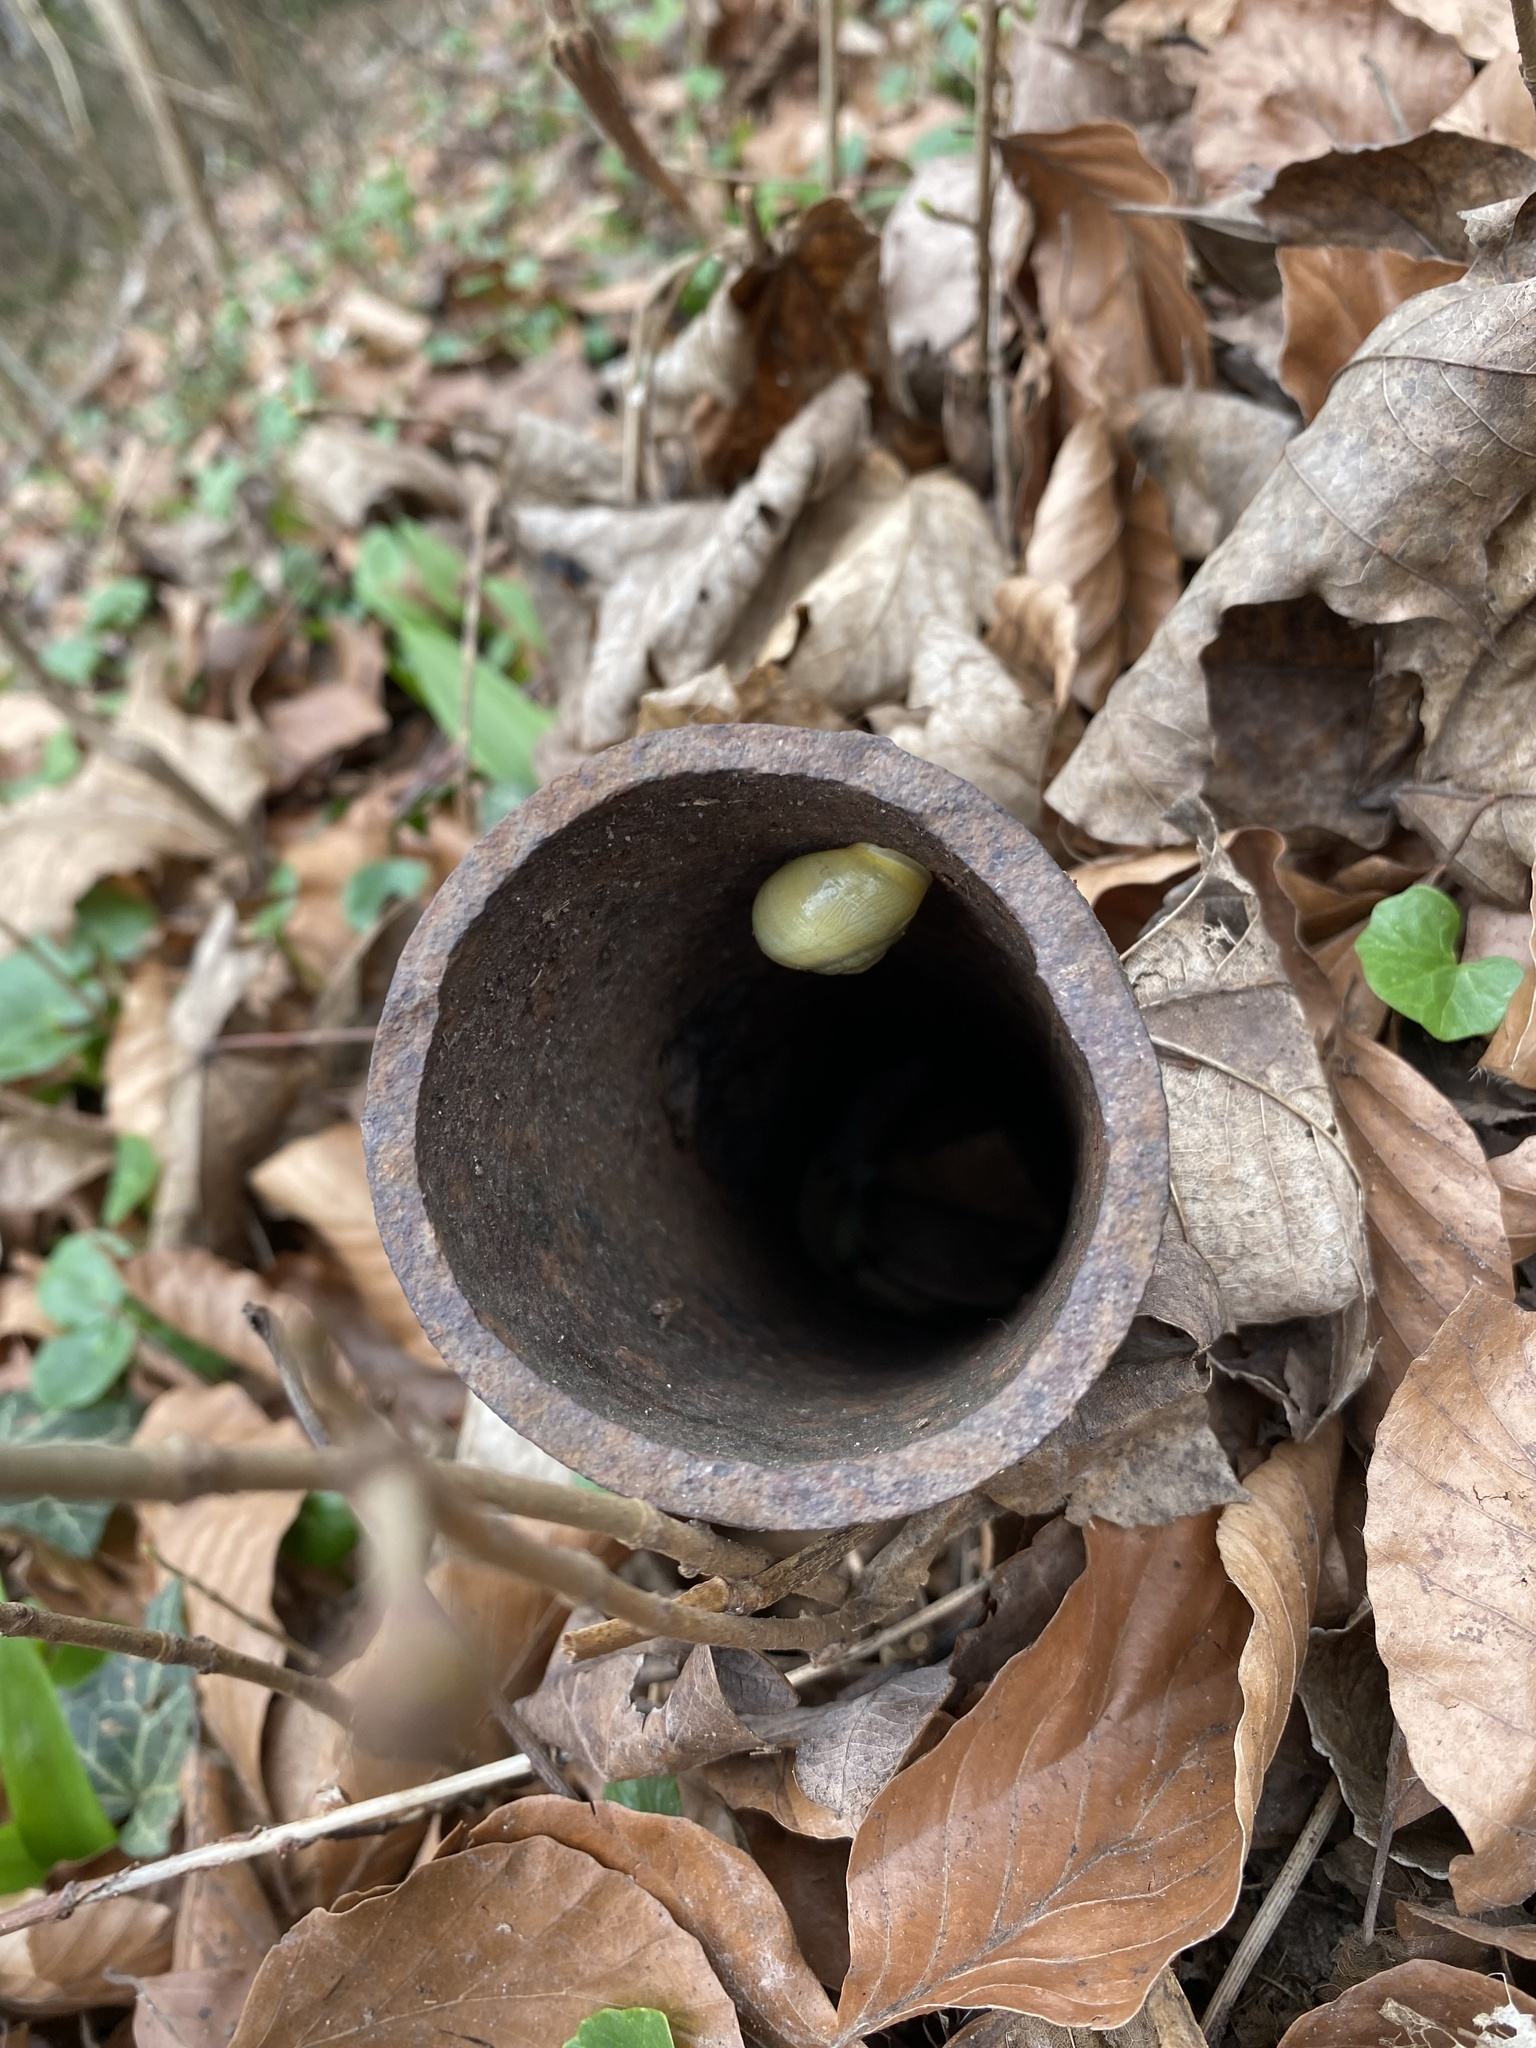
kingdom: Animalia
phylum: Mollusca
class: Gastropoda
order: Stylommatophora
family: Helicidae
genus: Cepaea
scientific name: Cepaea hortensis
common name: White-lip gardensnail
